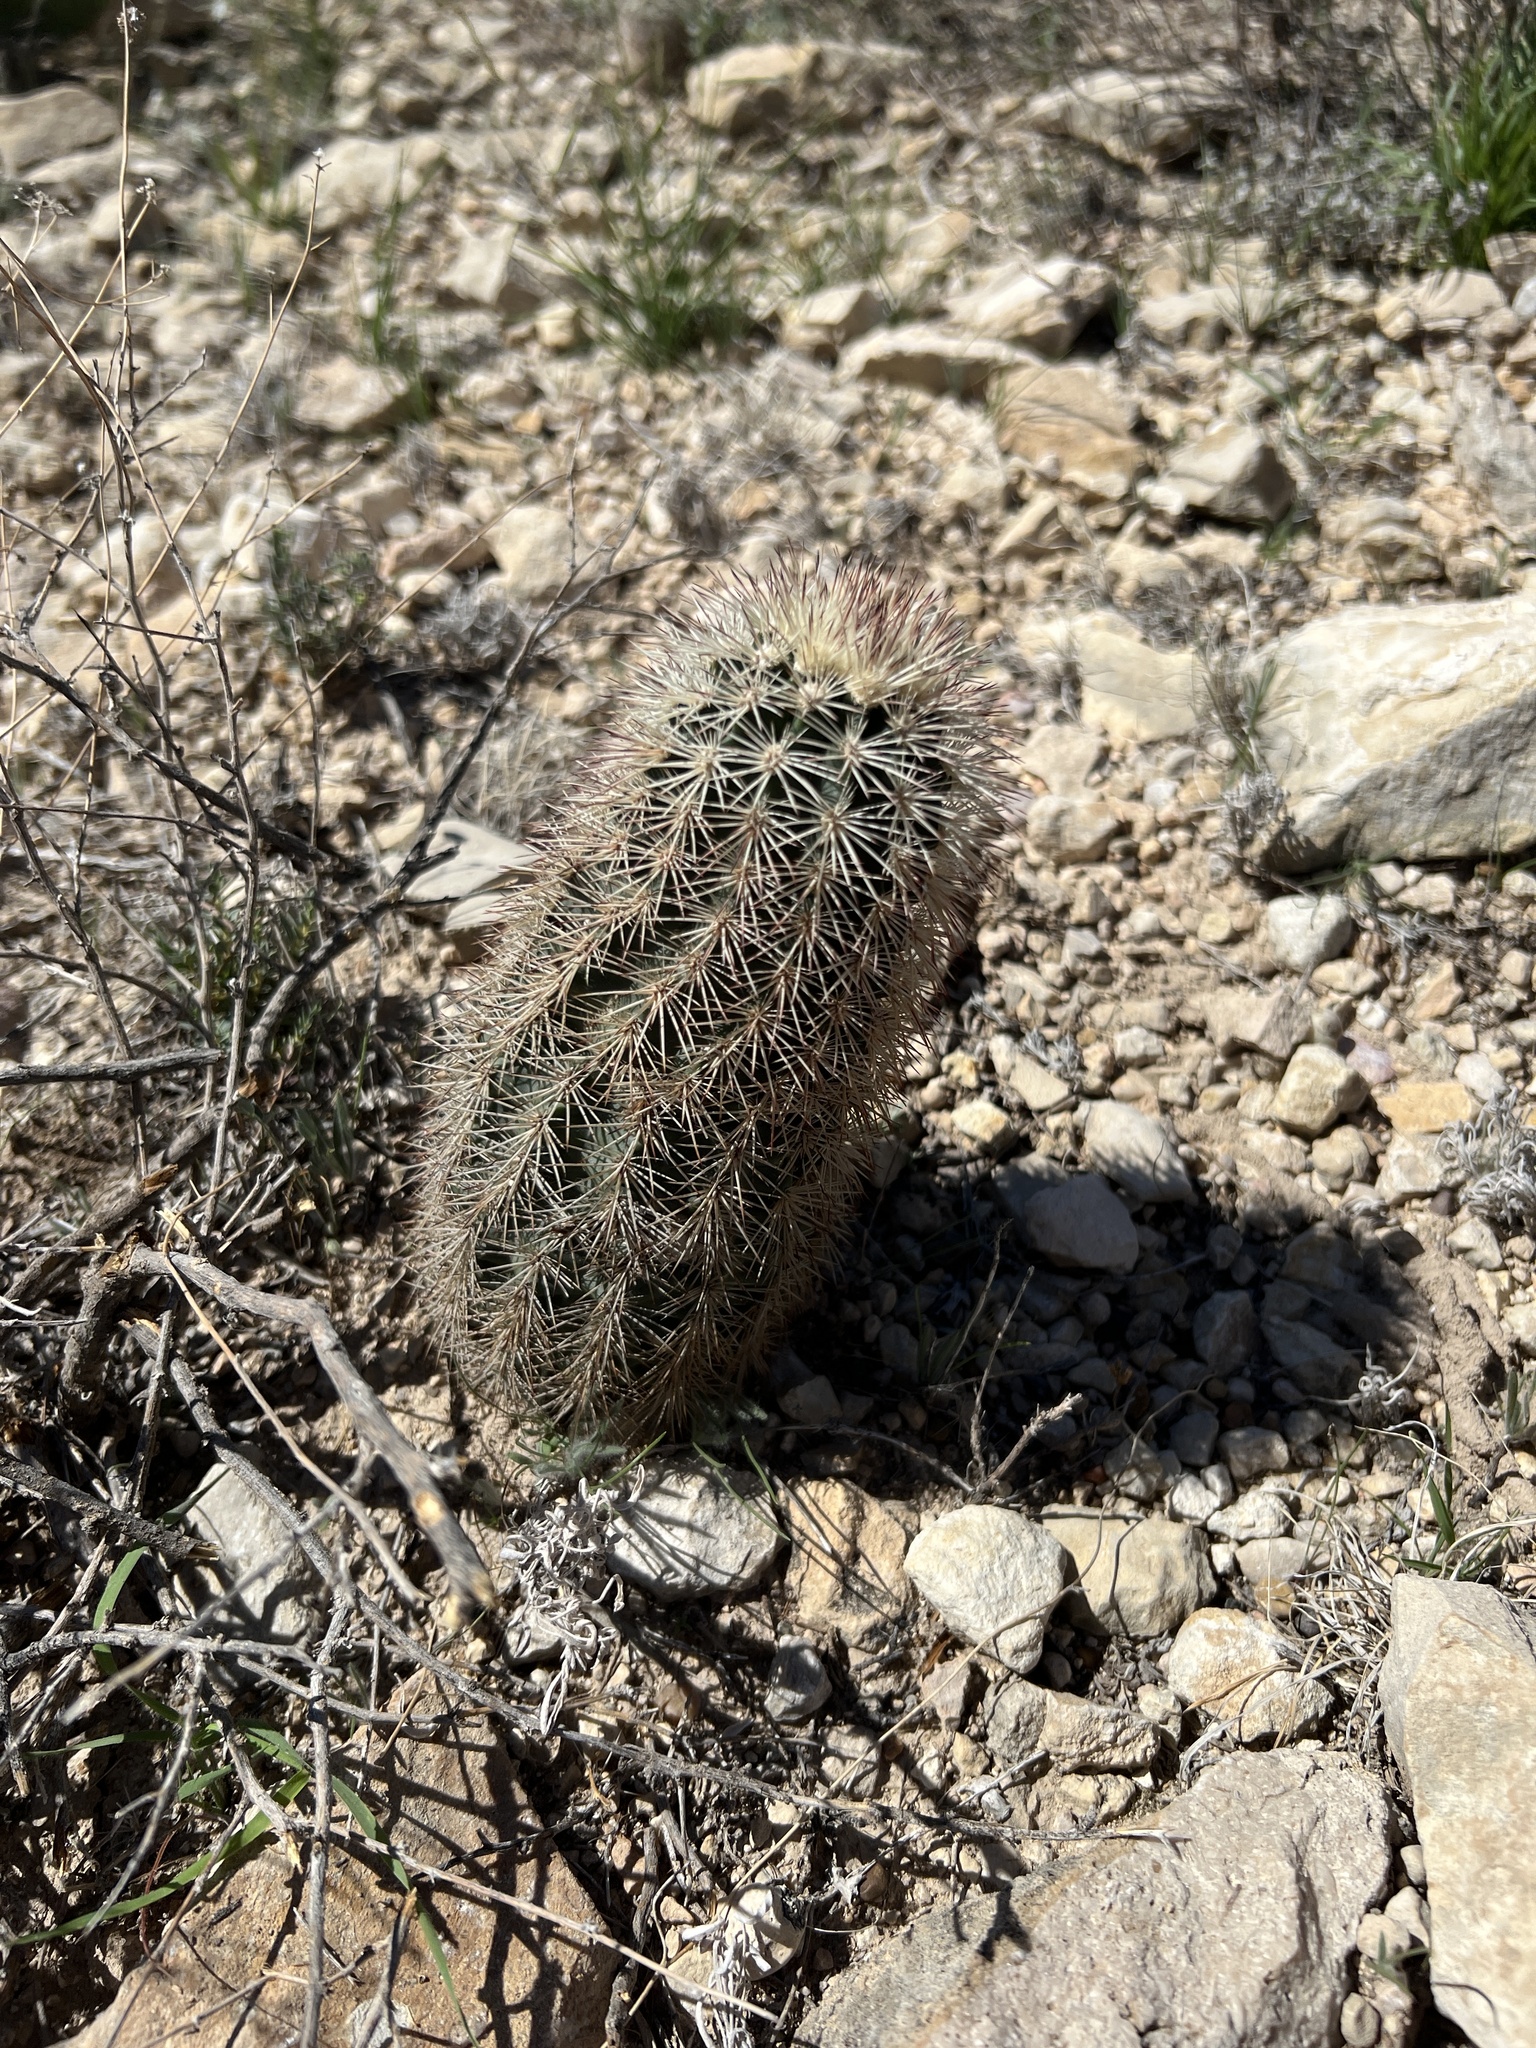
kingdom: Plantae
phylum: Tracheophyta
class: Magnoliopsida
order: Caryophyllales
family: Cactaceae
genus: Echinocereus
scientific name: Echinocereus dasyacanthus
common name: Spiny hedgehog cactus
